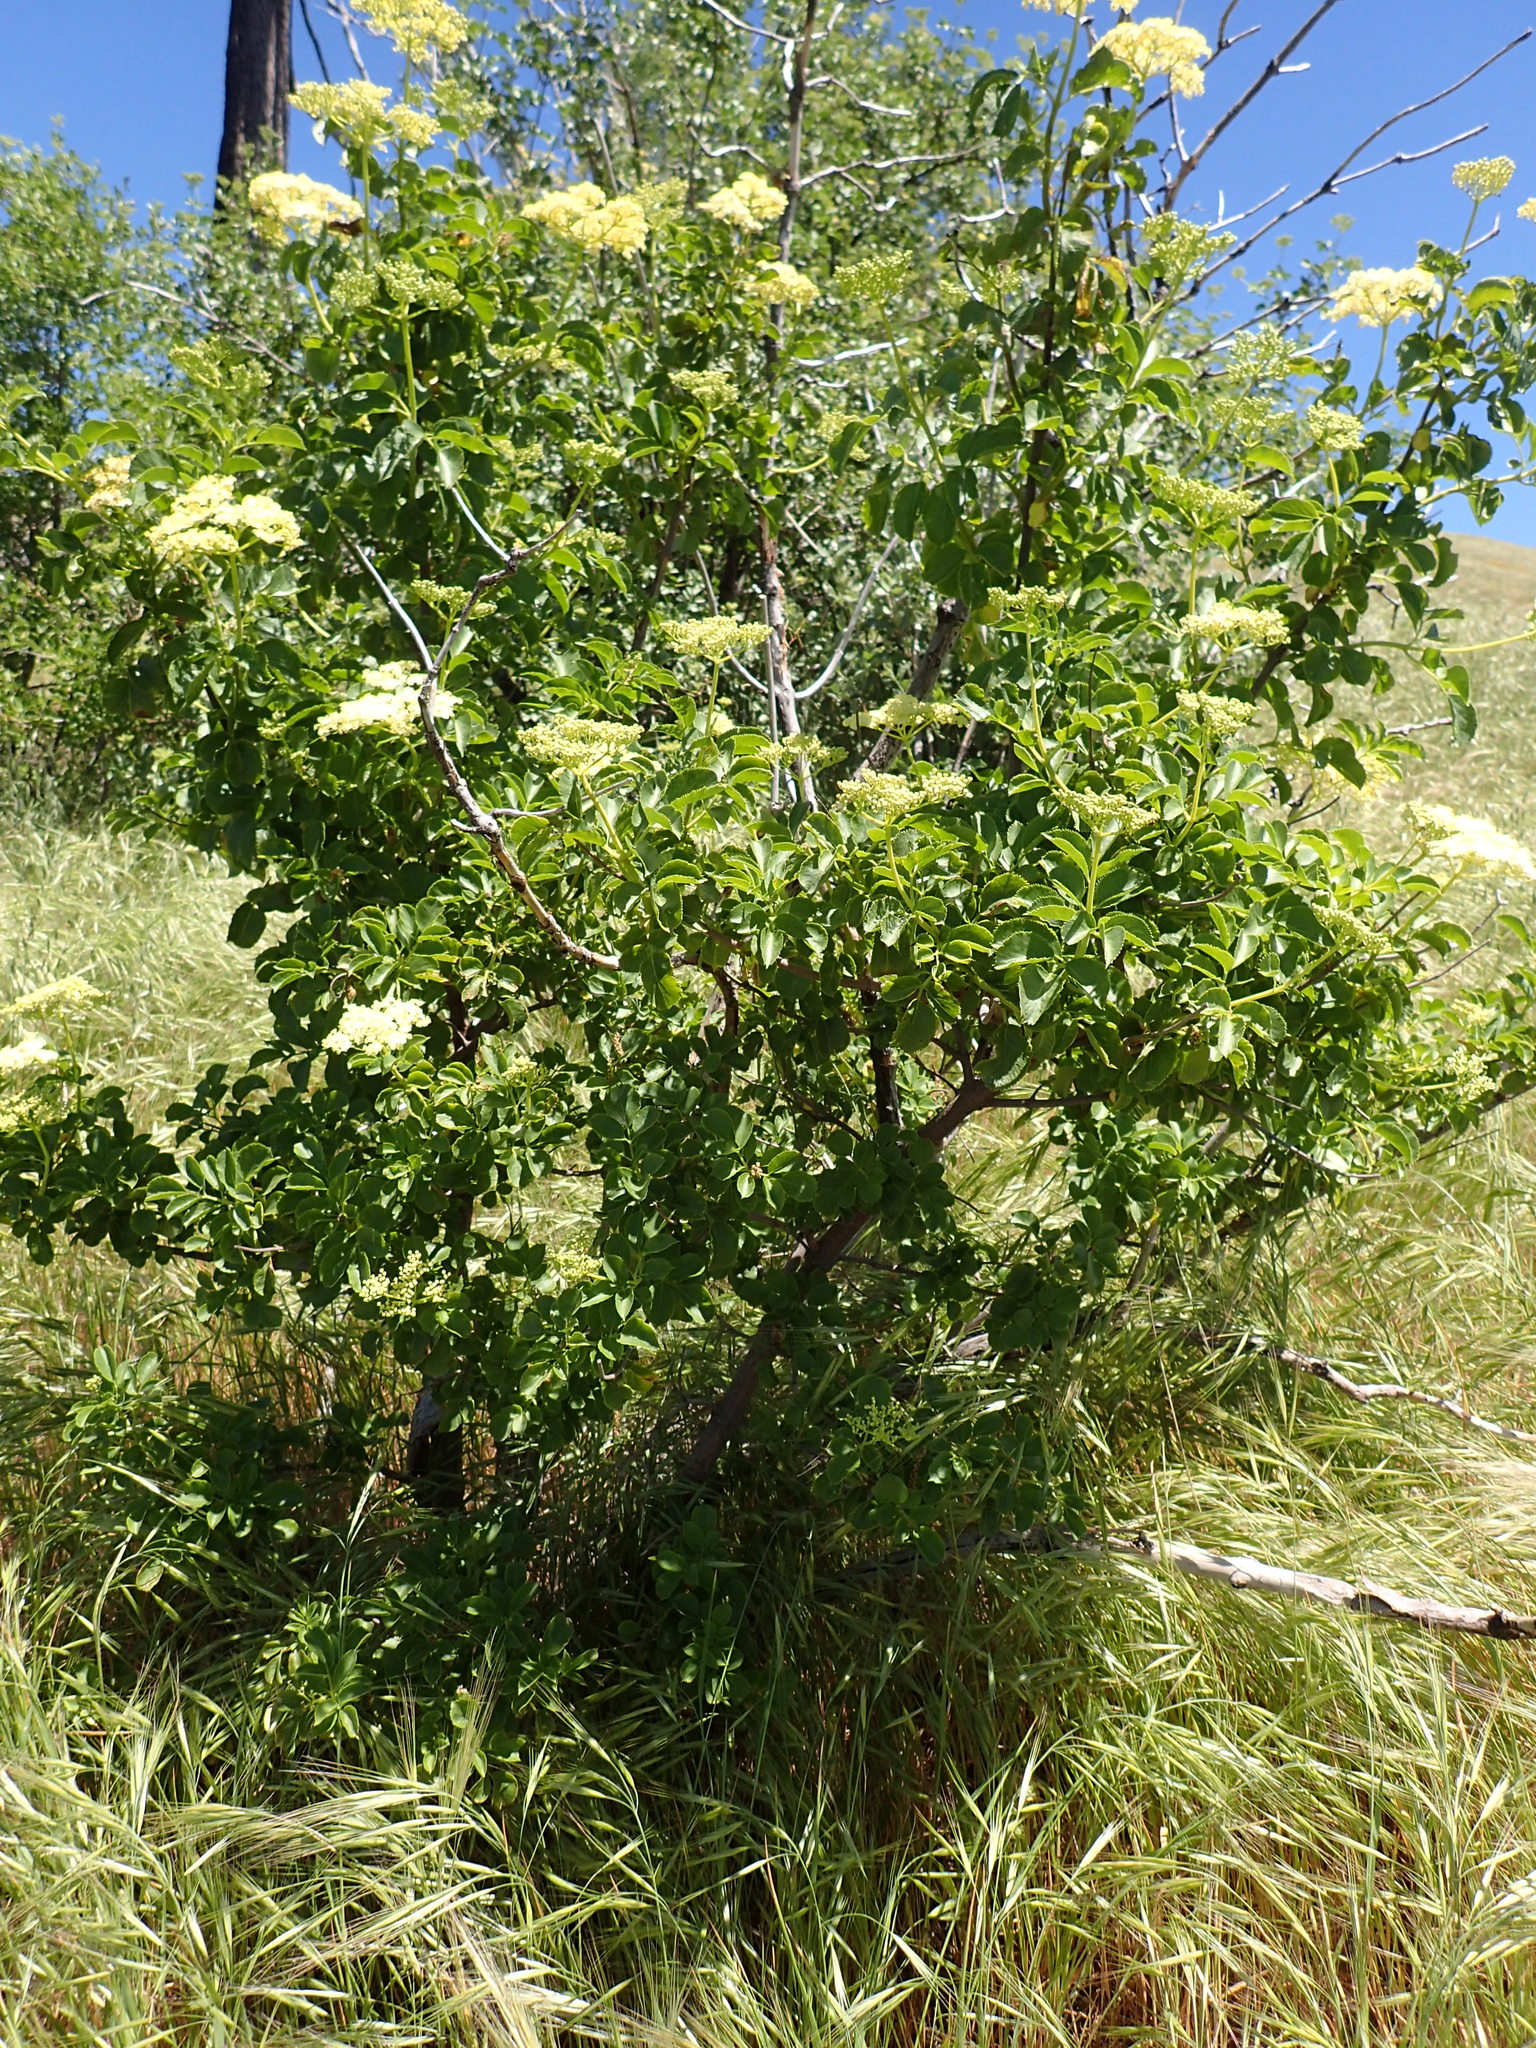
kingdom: Plantae
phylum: Tracheophyta
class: Magnoliopsida
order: Dipsacales
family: Viburnaceae
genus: Sambucus
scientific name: Sambucus cerulea
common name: Blue elder
